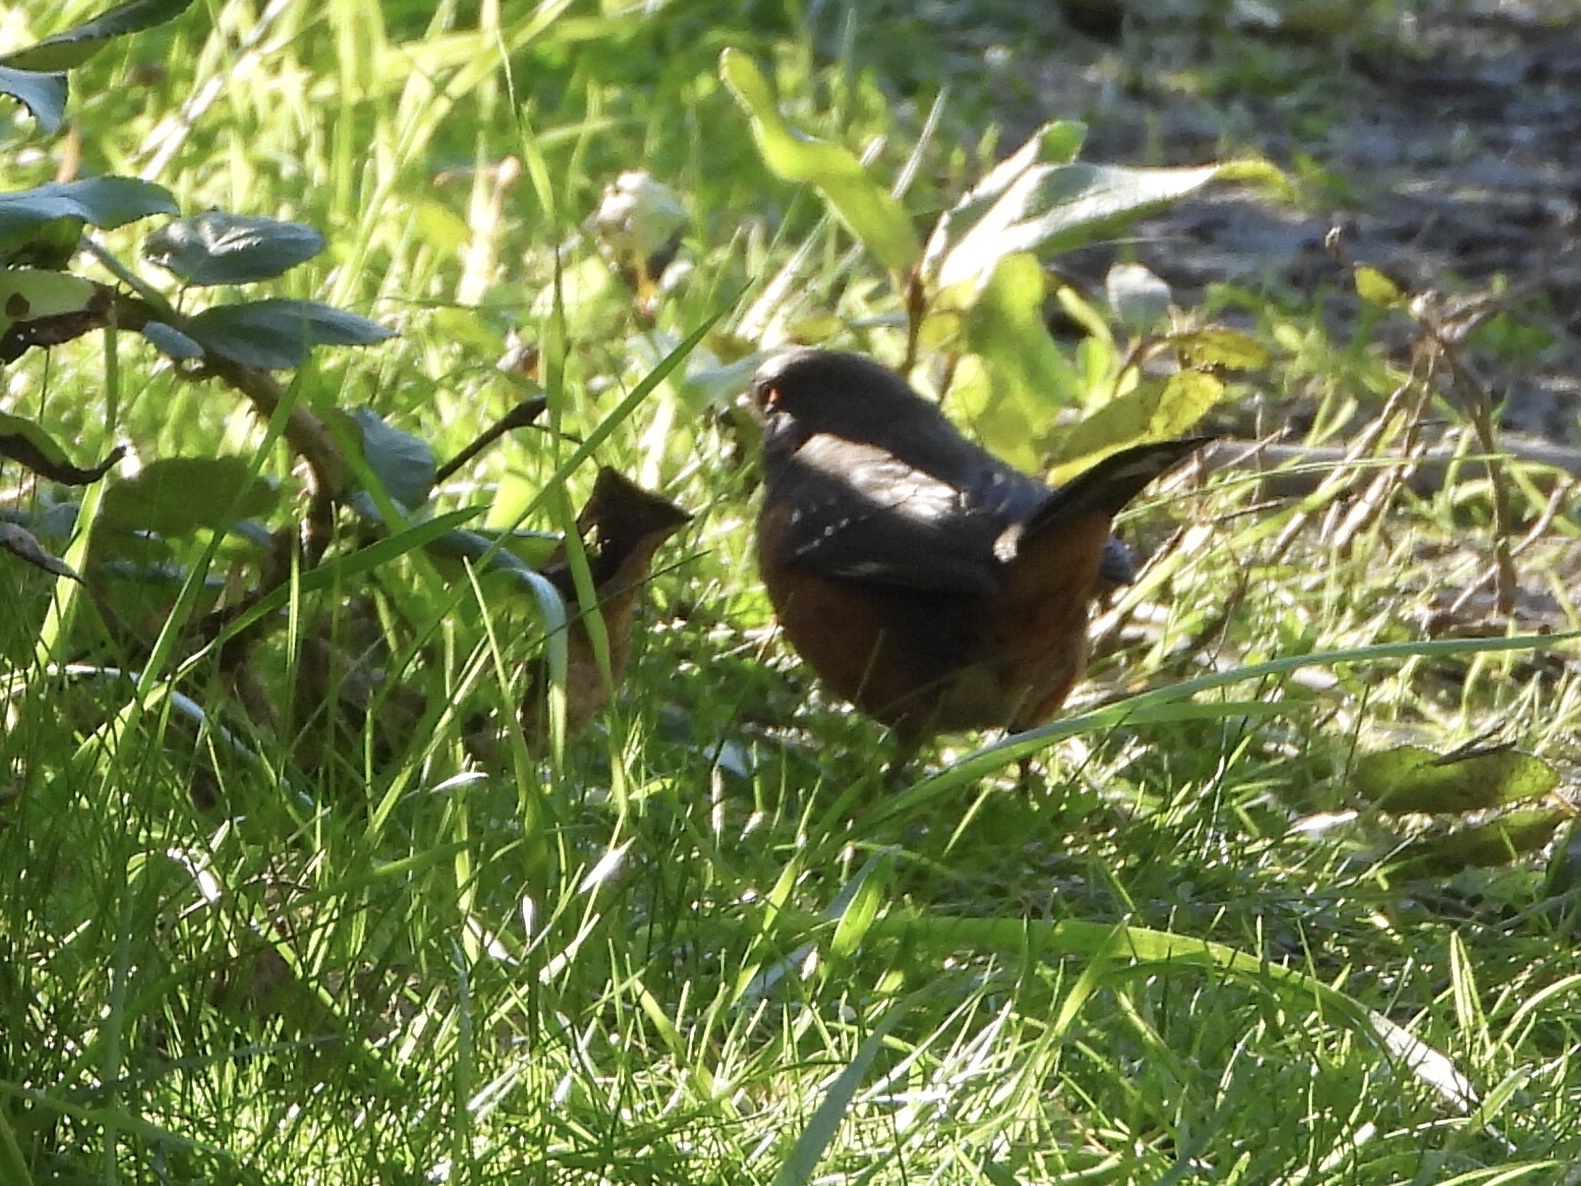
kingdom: Animalia
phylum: Chordata
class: Aves
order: Passeriformes
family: Passerellidae
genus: Pipilo
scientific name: Pipilo maculatus
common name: Spotted towhee
